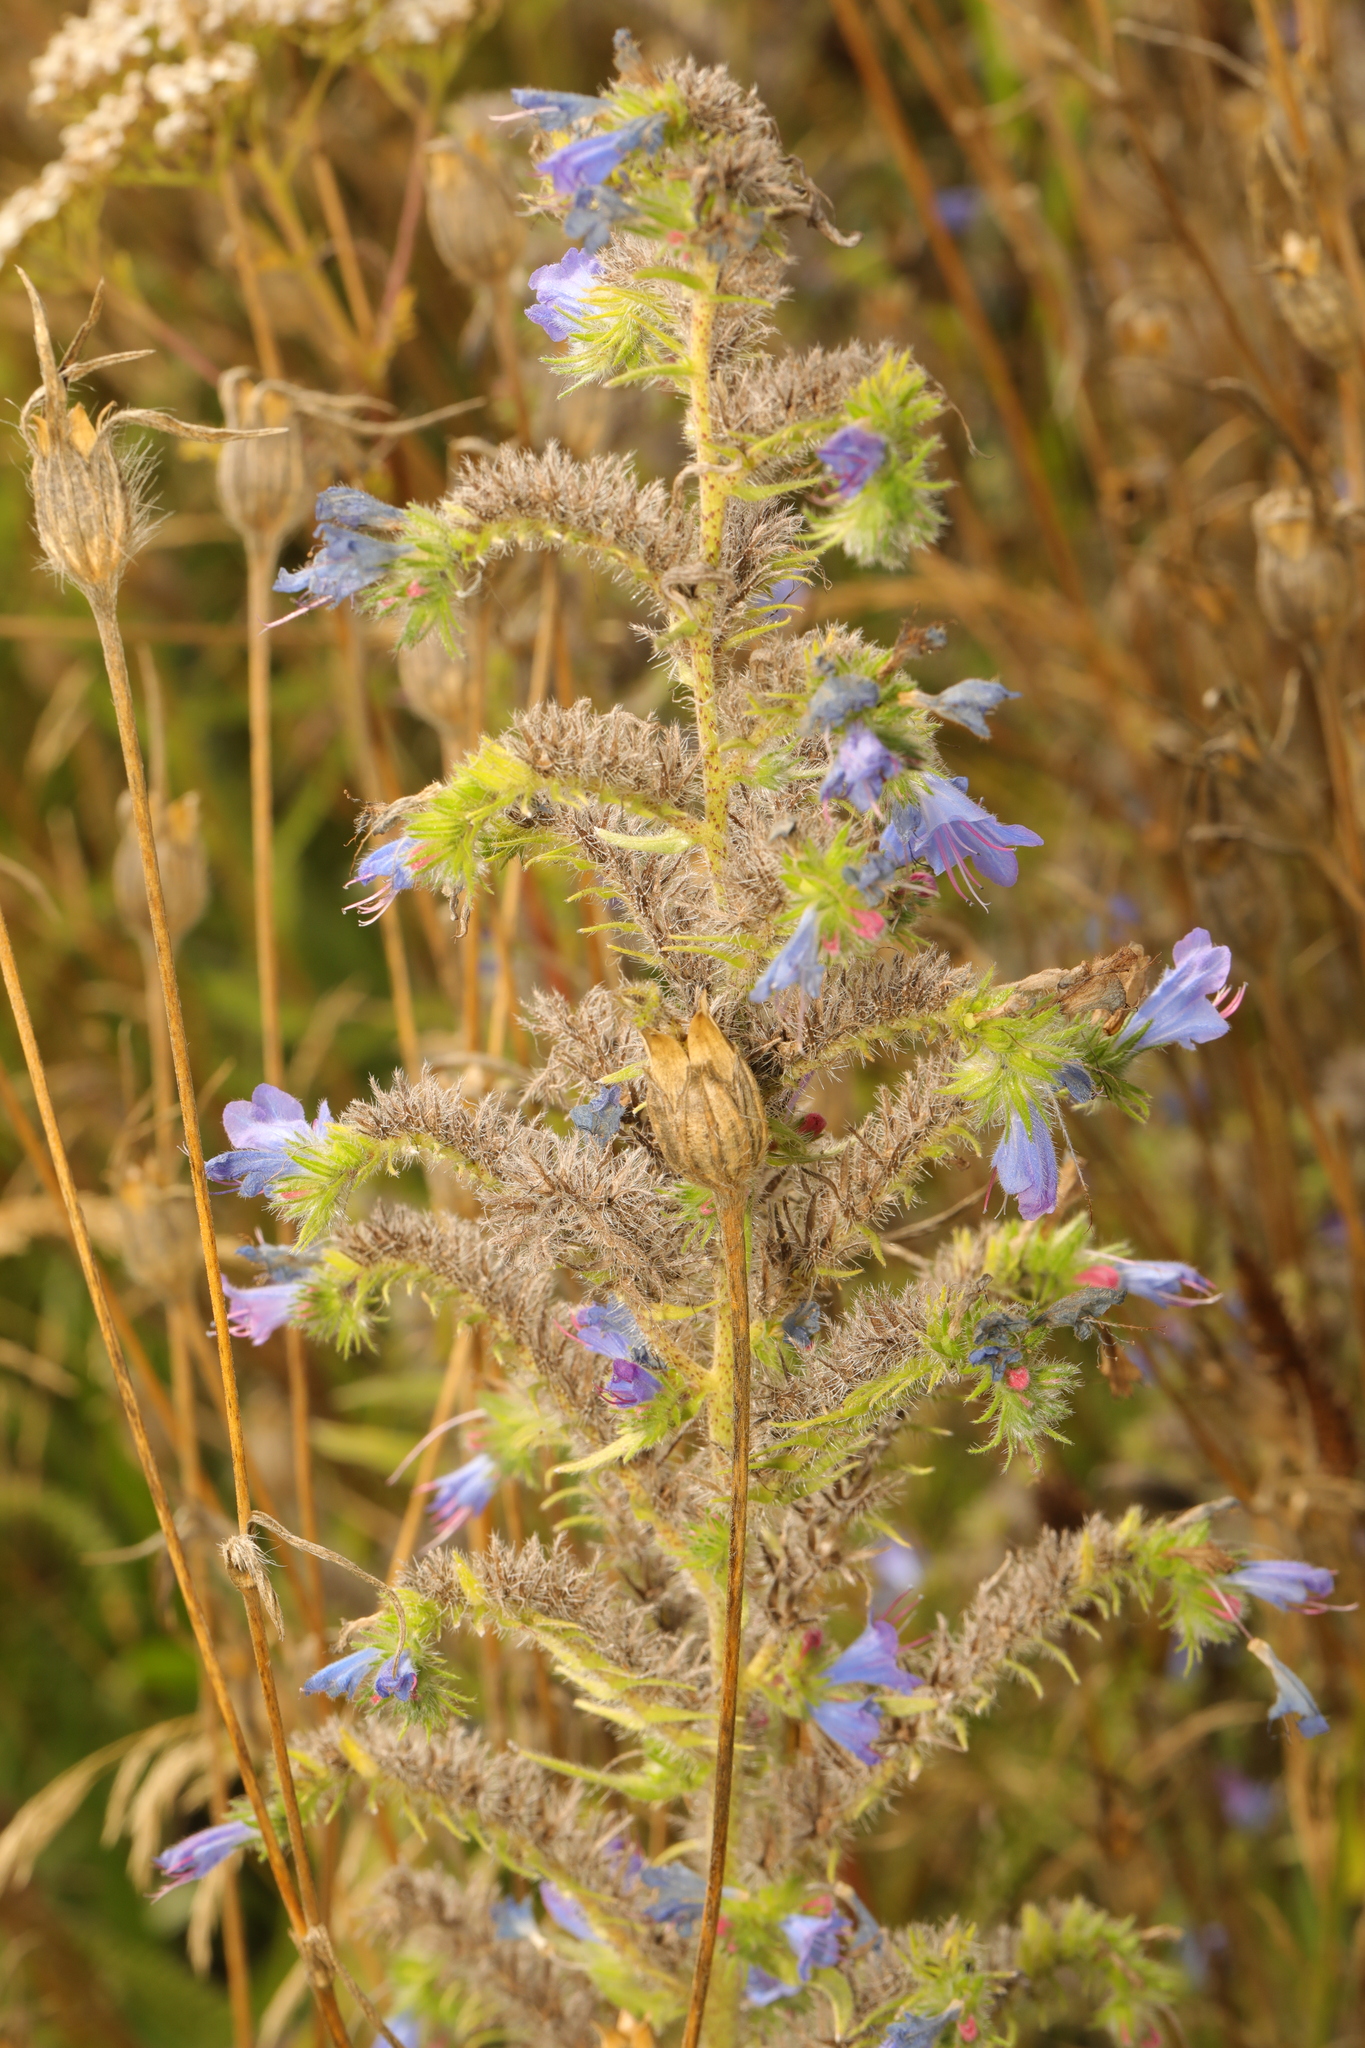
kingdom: Plantae
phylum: Tracheophyta
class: Magnoliopsida
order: Boraginales
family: Boraginaceae
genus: Echium
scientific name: Echium vulgare
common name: Common viper's bugloss
